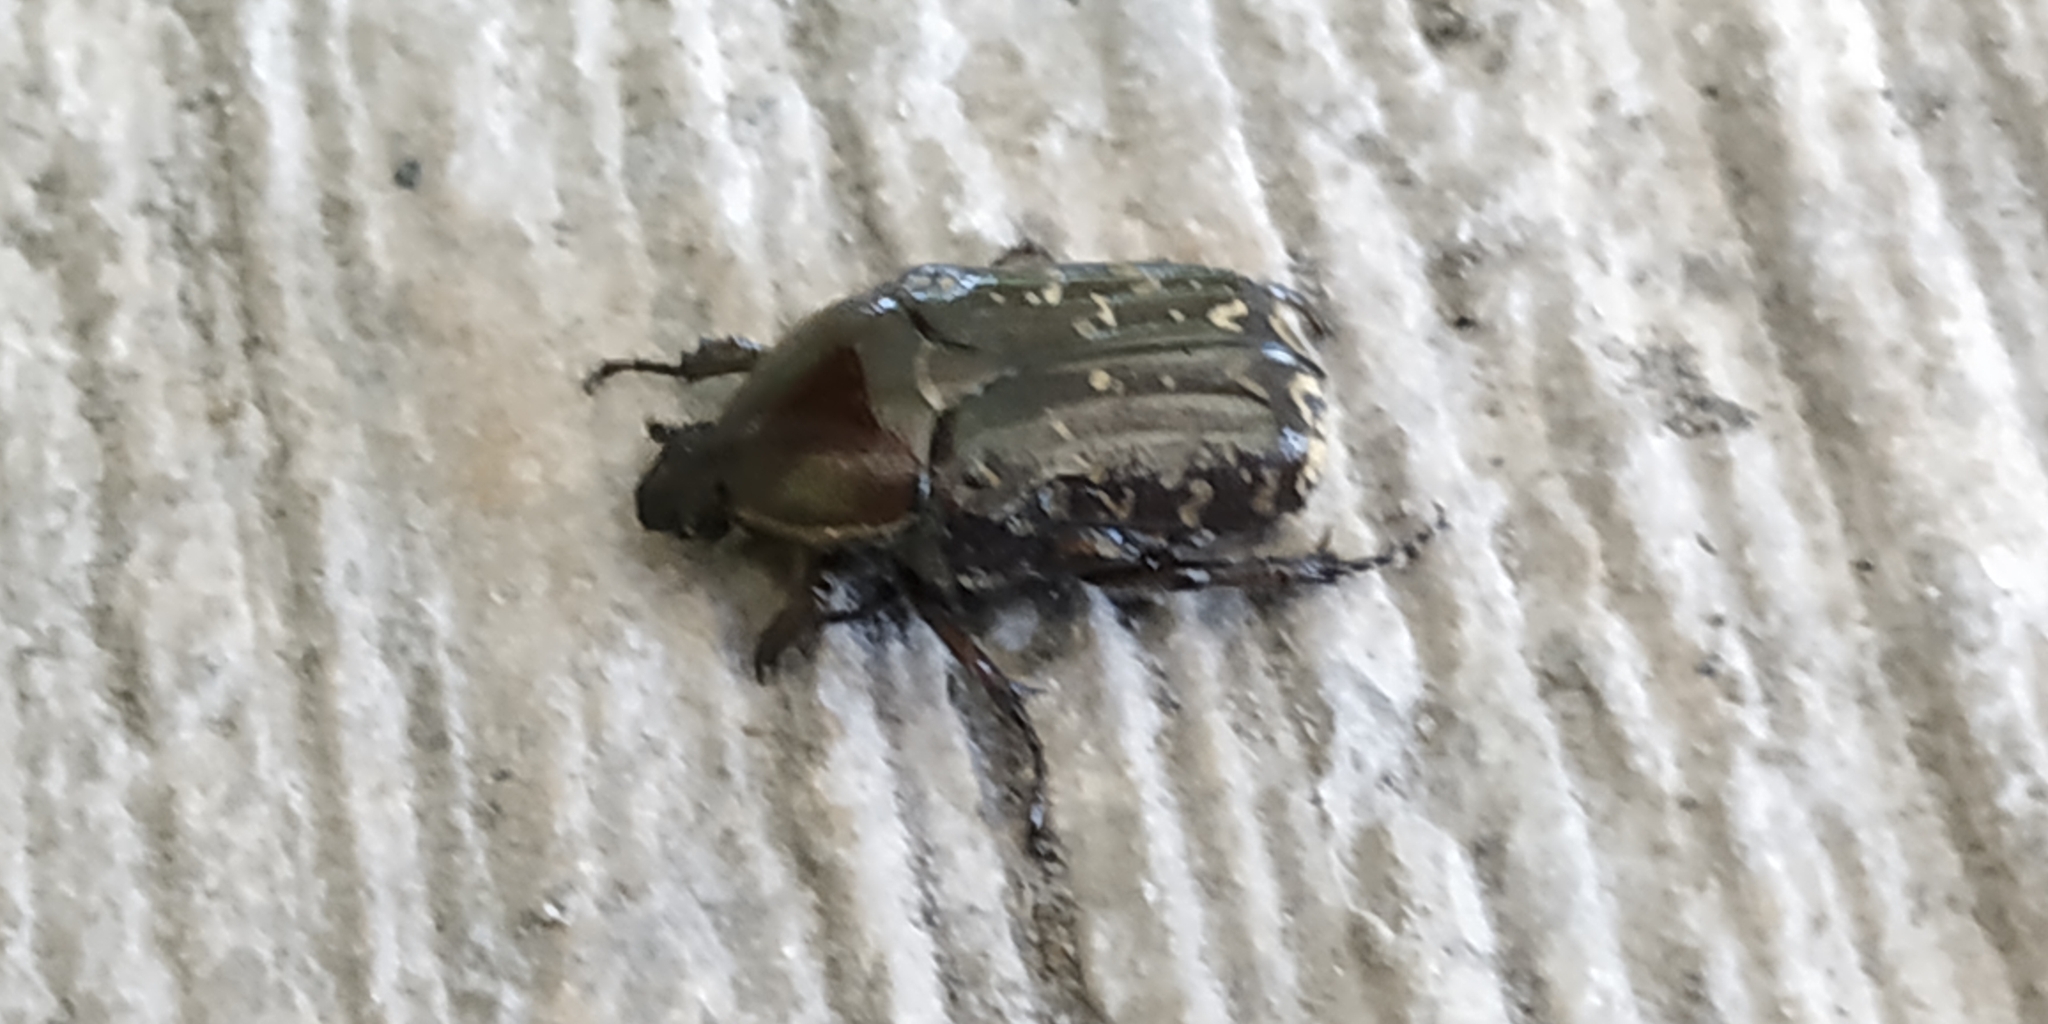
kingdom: Animalia
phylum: Arthropoda
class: Insecta
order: Coleoptera
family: Scarabaeidae
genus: Euphoria
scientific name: Euphoria leucographa
